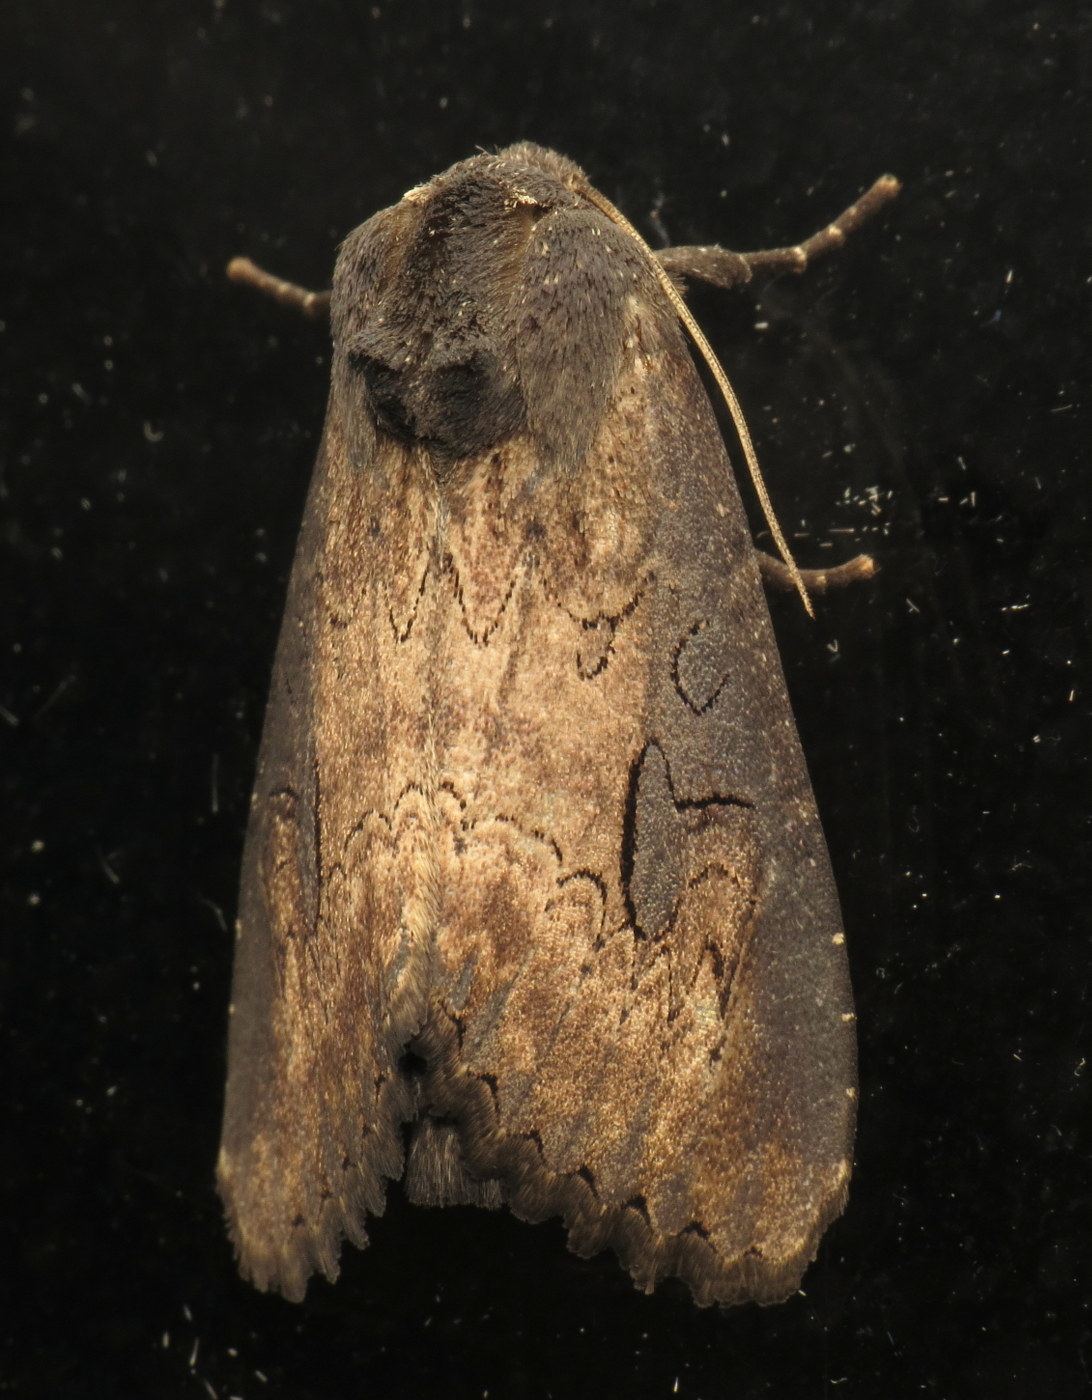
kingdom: Animalia
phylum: Arthropoda
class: Insecta
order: Lepidoptera
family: Noctuidae
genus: Macronoctua
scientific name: Macronoctua onusta
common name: Iris borer
